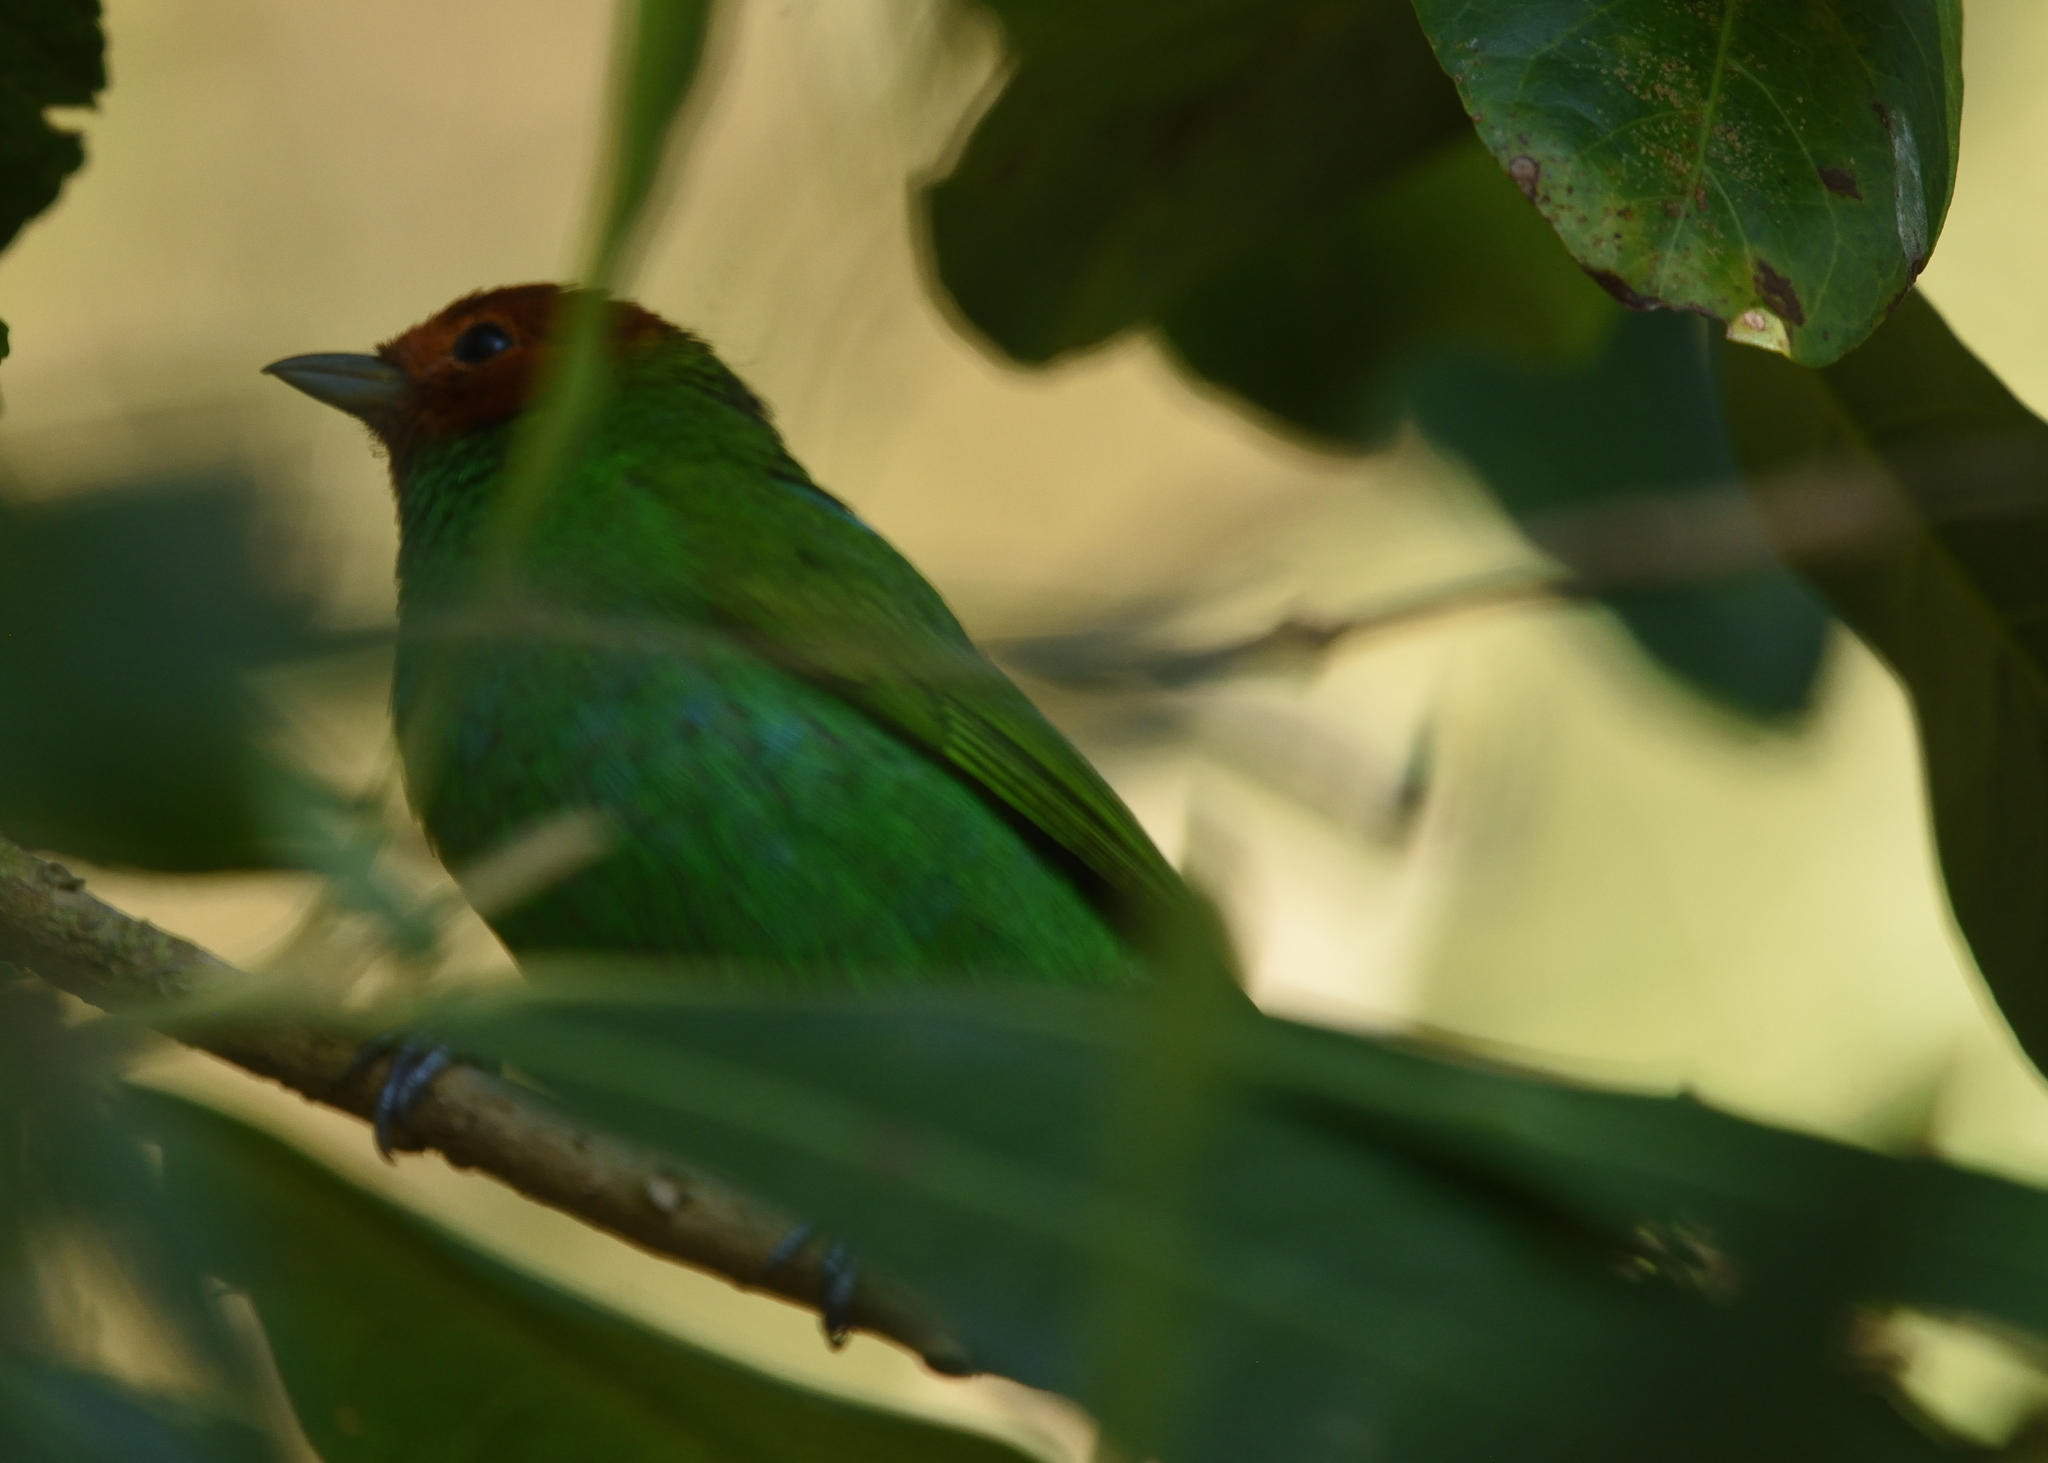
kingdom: Animalia
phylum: Chordata
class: Aves
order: Passeriformes
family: Thraupidae
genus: Tangara
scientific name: Tangara gyrola
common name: Bay-headed tanager
